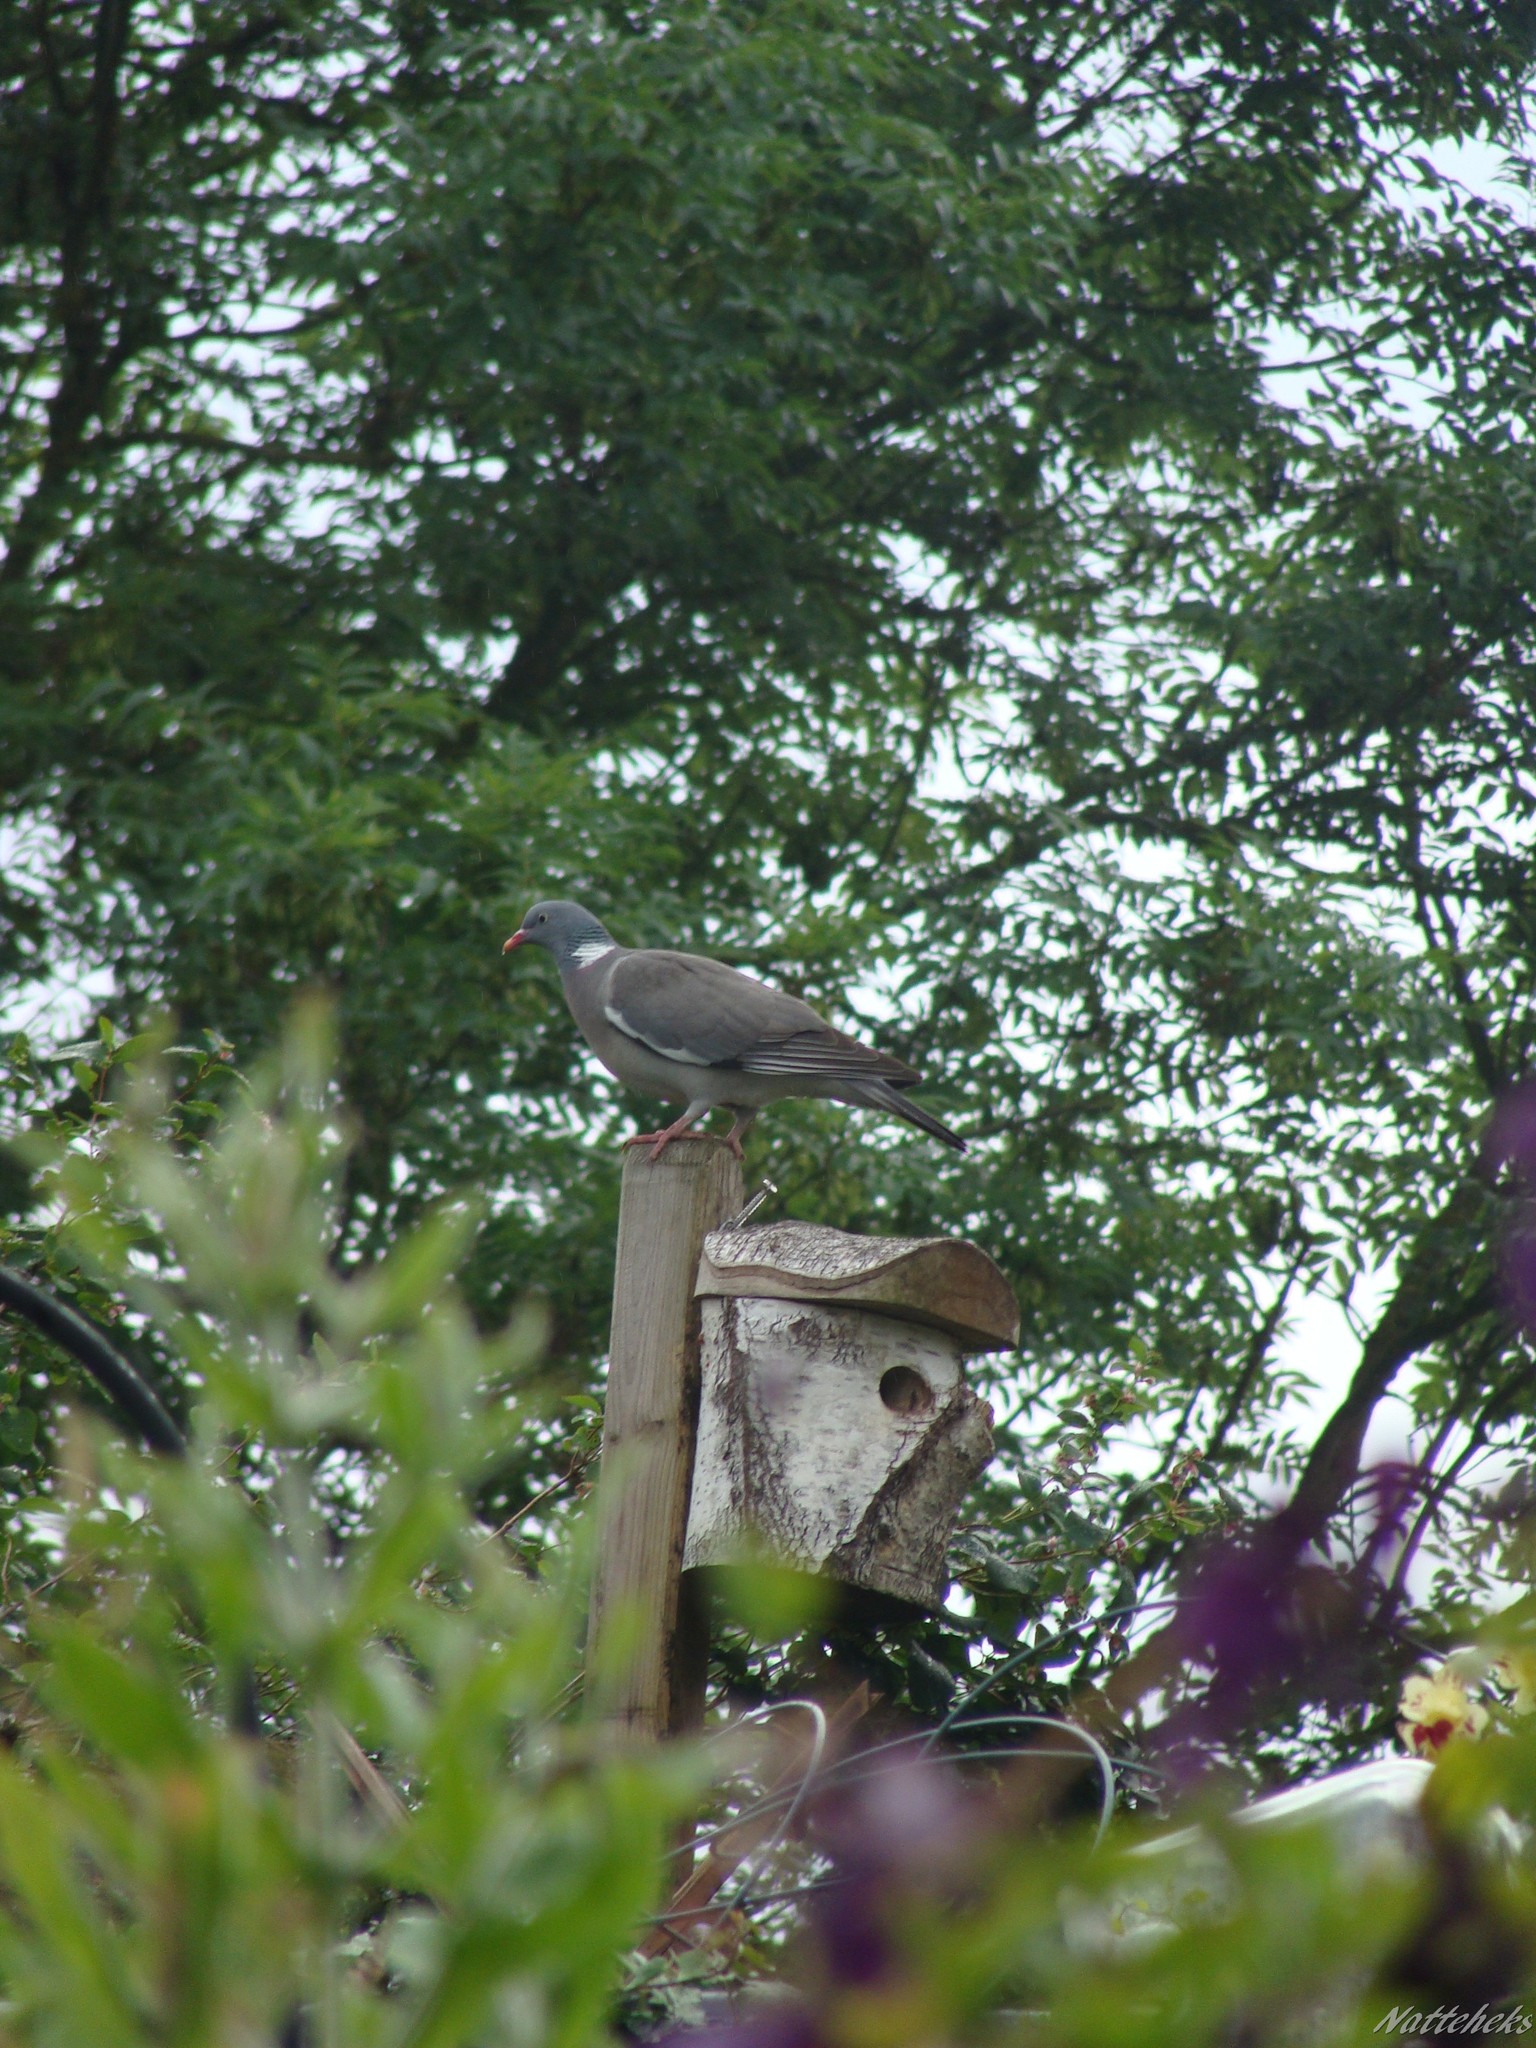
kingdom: Animalia
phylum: Chordata
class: Aves
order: Columbiformes
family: Columbidae
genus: Columba
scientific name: Columba palumbus
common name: Common wood pigeon
